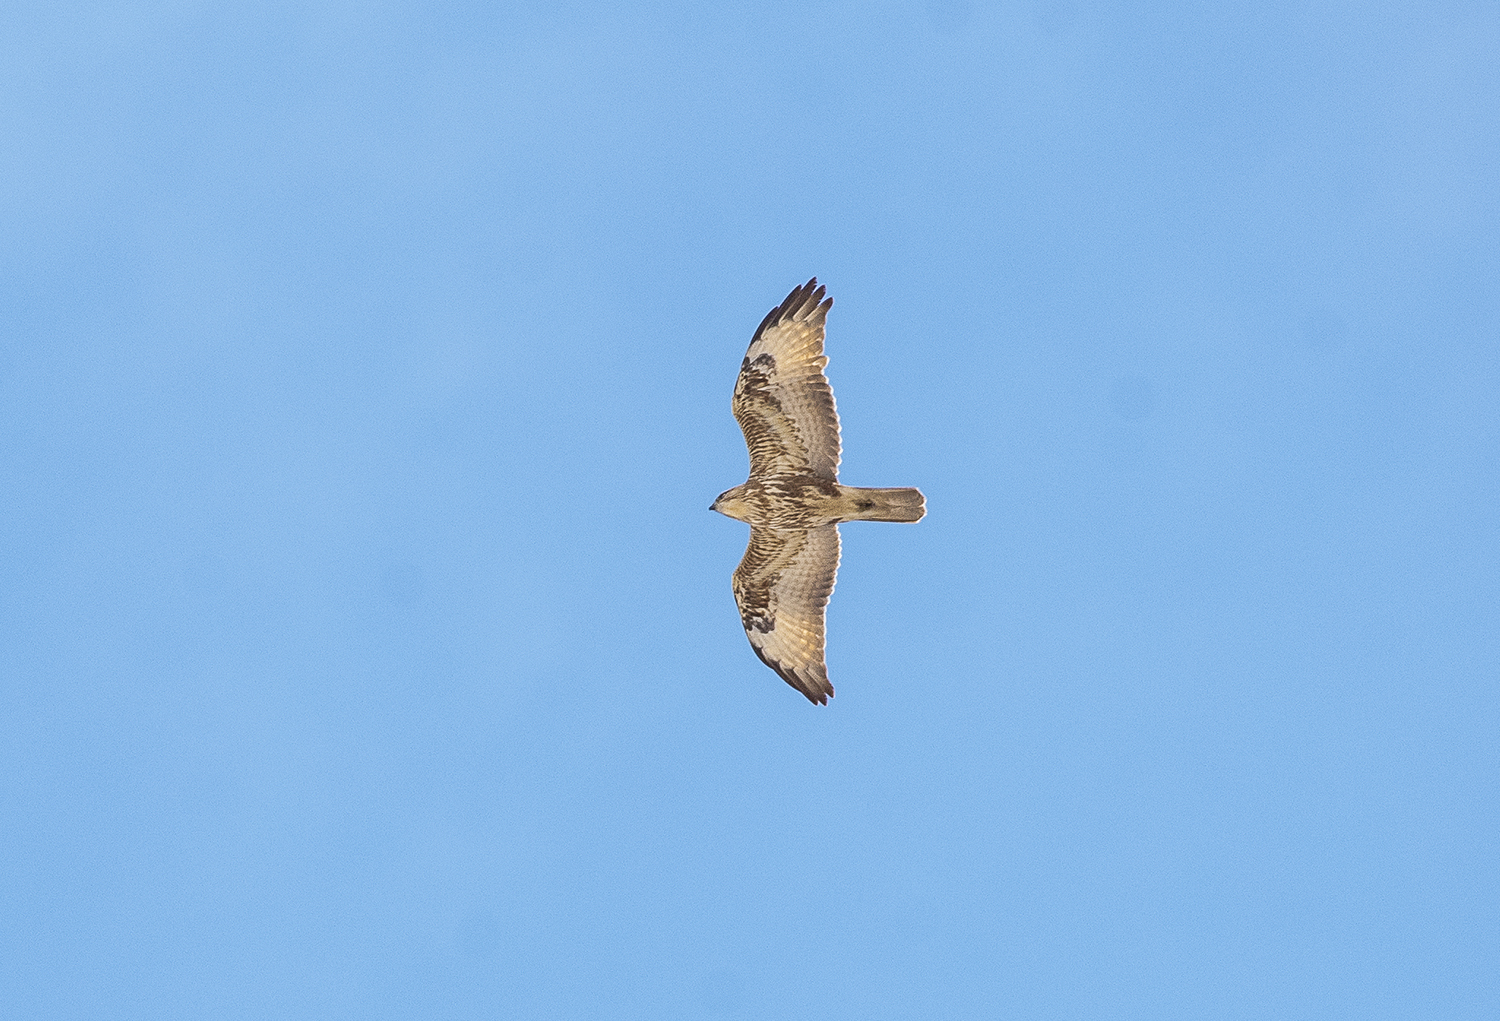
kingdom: Animalia
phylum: Chordata
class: Aves
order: Accipitriformes
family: Accipitridae
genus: Buteo
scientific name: Buteo japonicus
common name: Eastern buzzard
